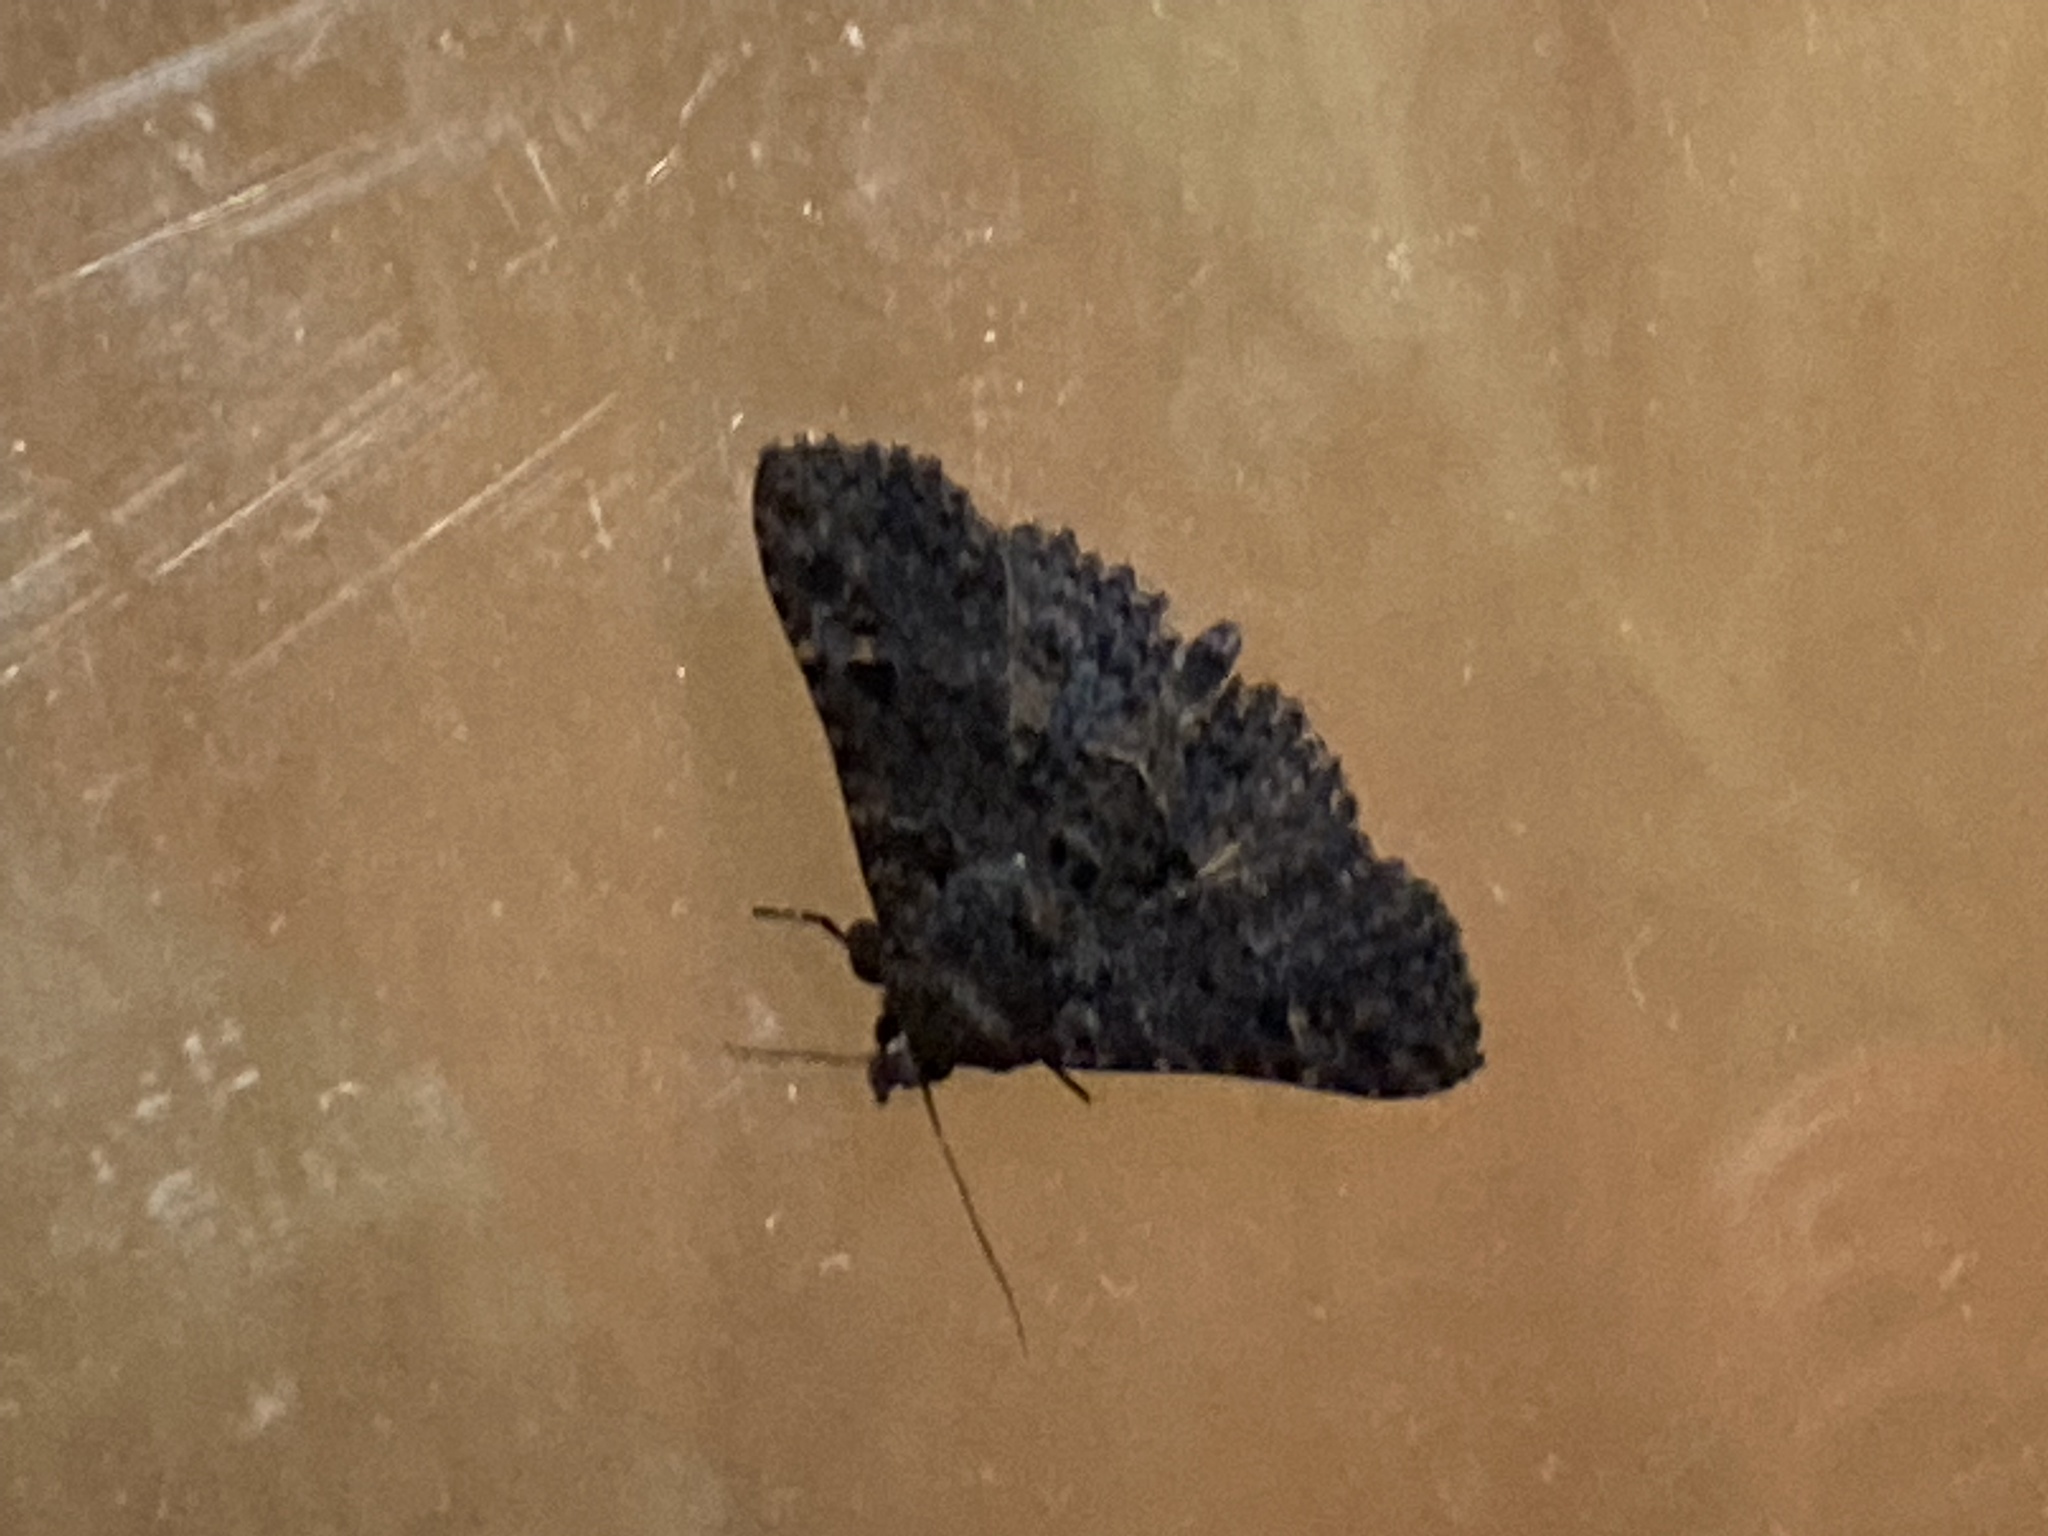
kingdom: Animalia
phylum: Arthropoda
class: Insecta
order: Lepidoptera
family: Erebidae
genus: Zale
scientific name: Zale coracias
